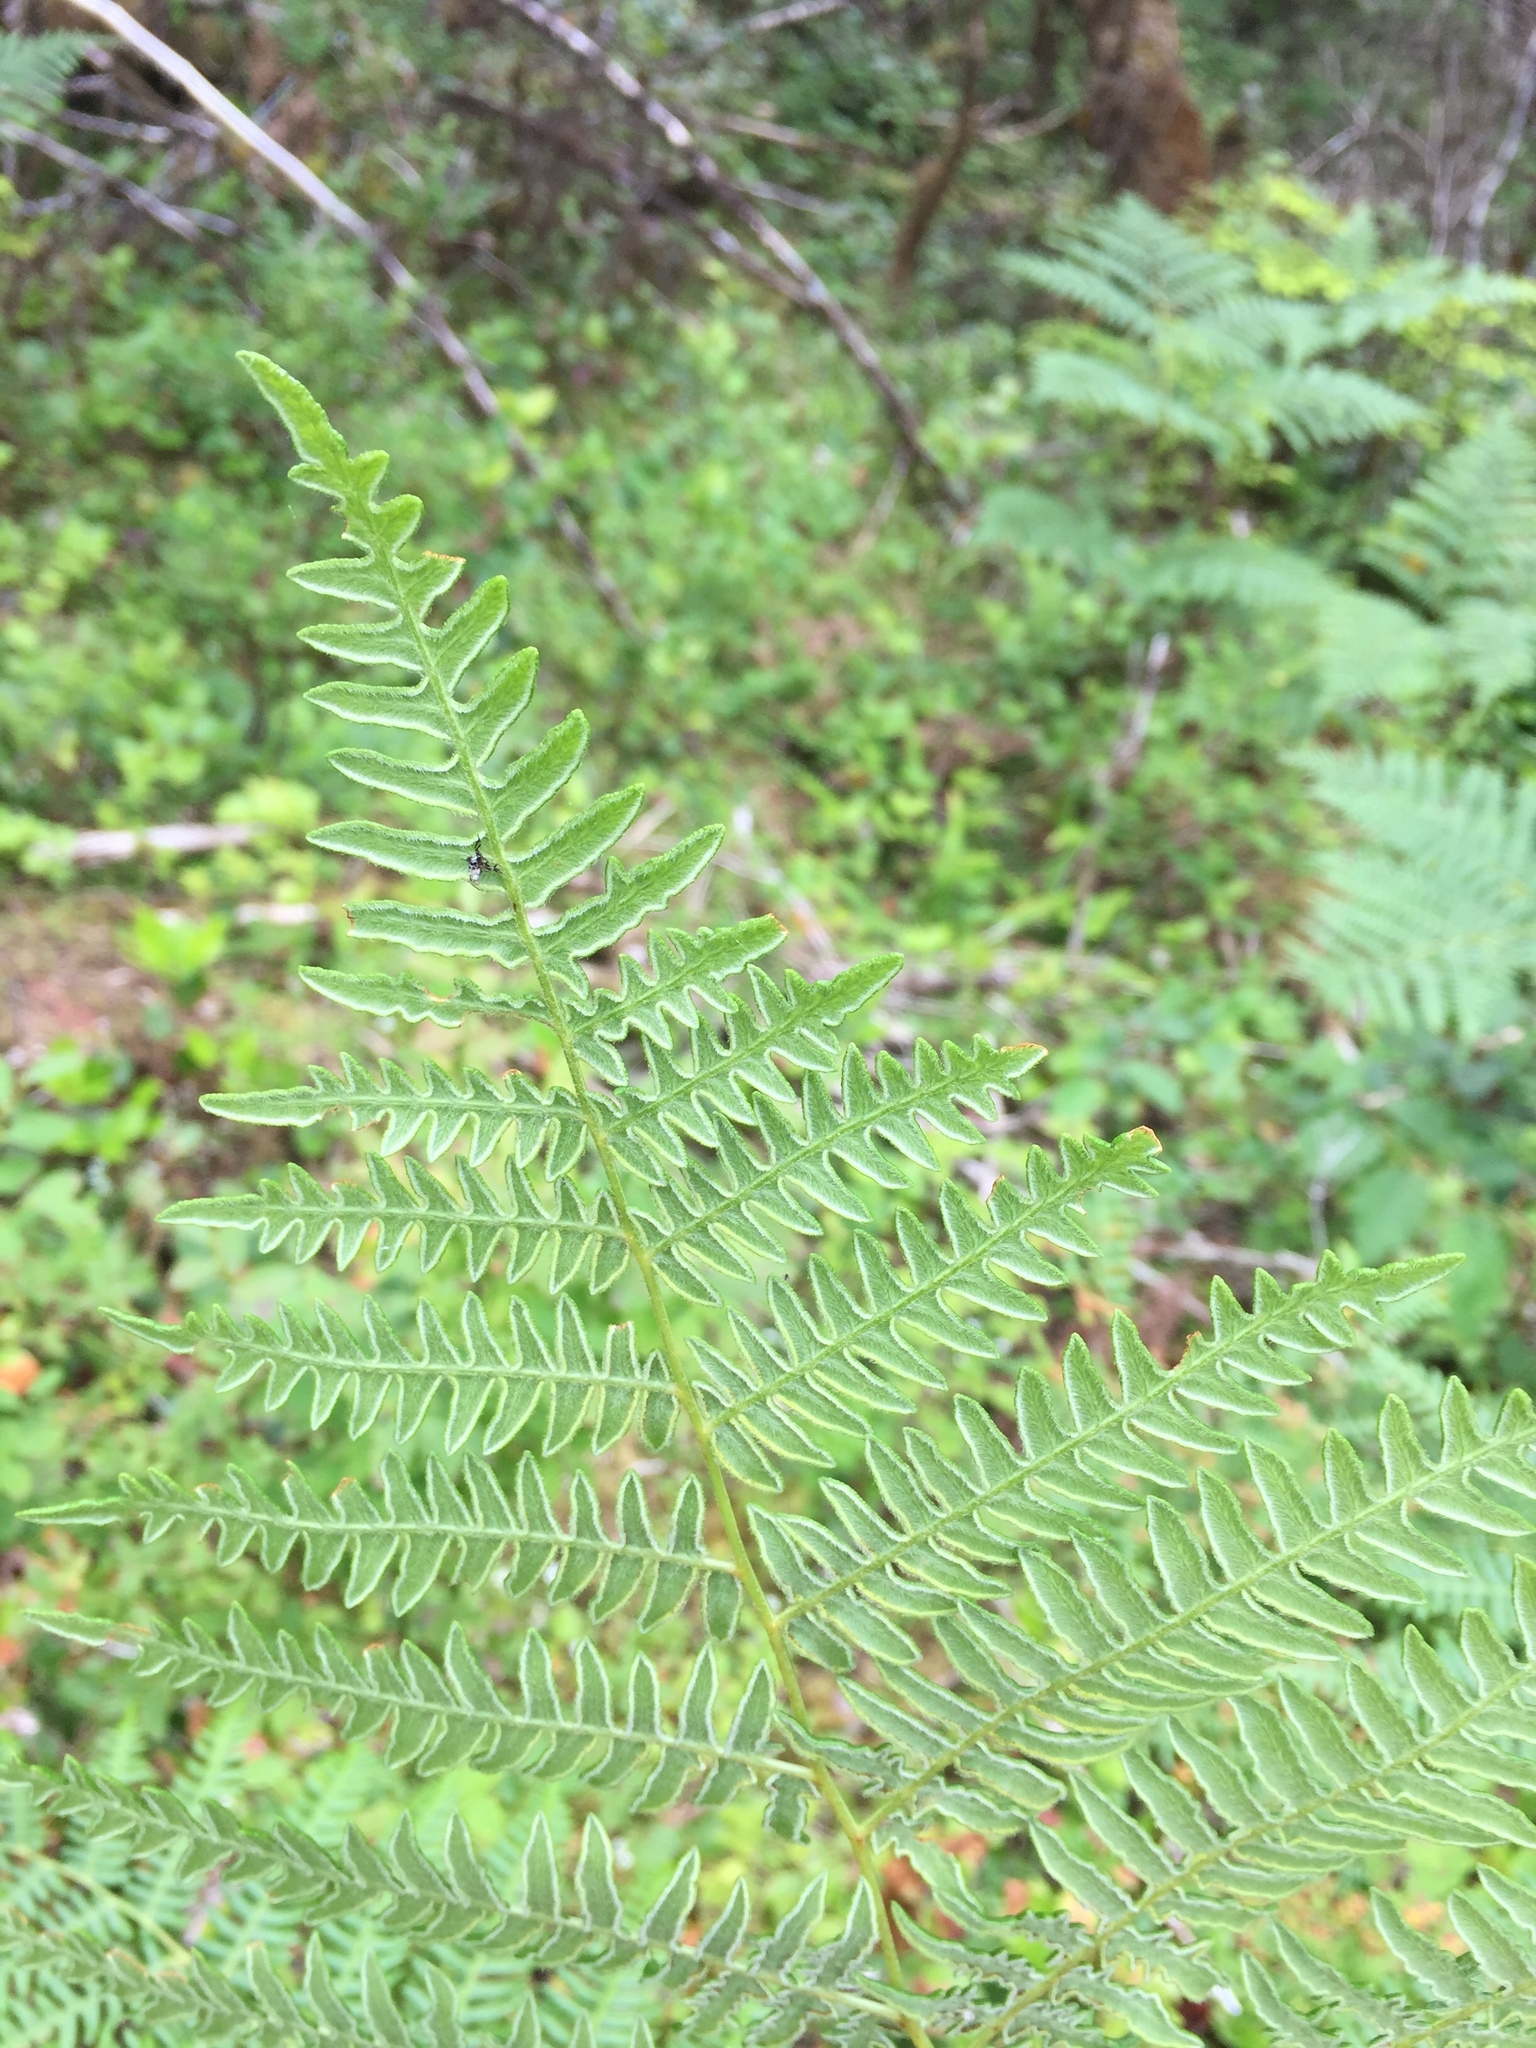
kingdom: Plantae
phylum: Tracheophyta
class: Polypodiopsida
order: Polypodiales
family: Dennstaedtiaceae
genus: Pteridium
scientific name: Pteridium aquilinum
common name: Bracken
